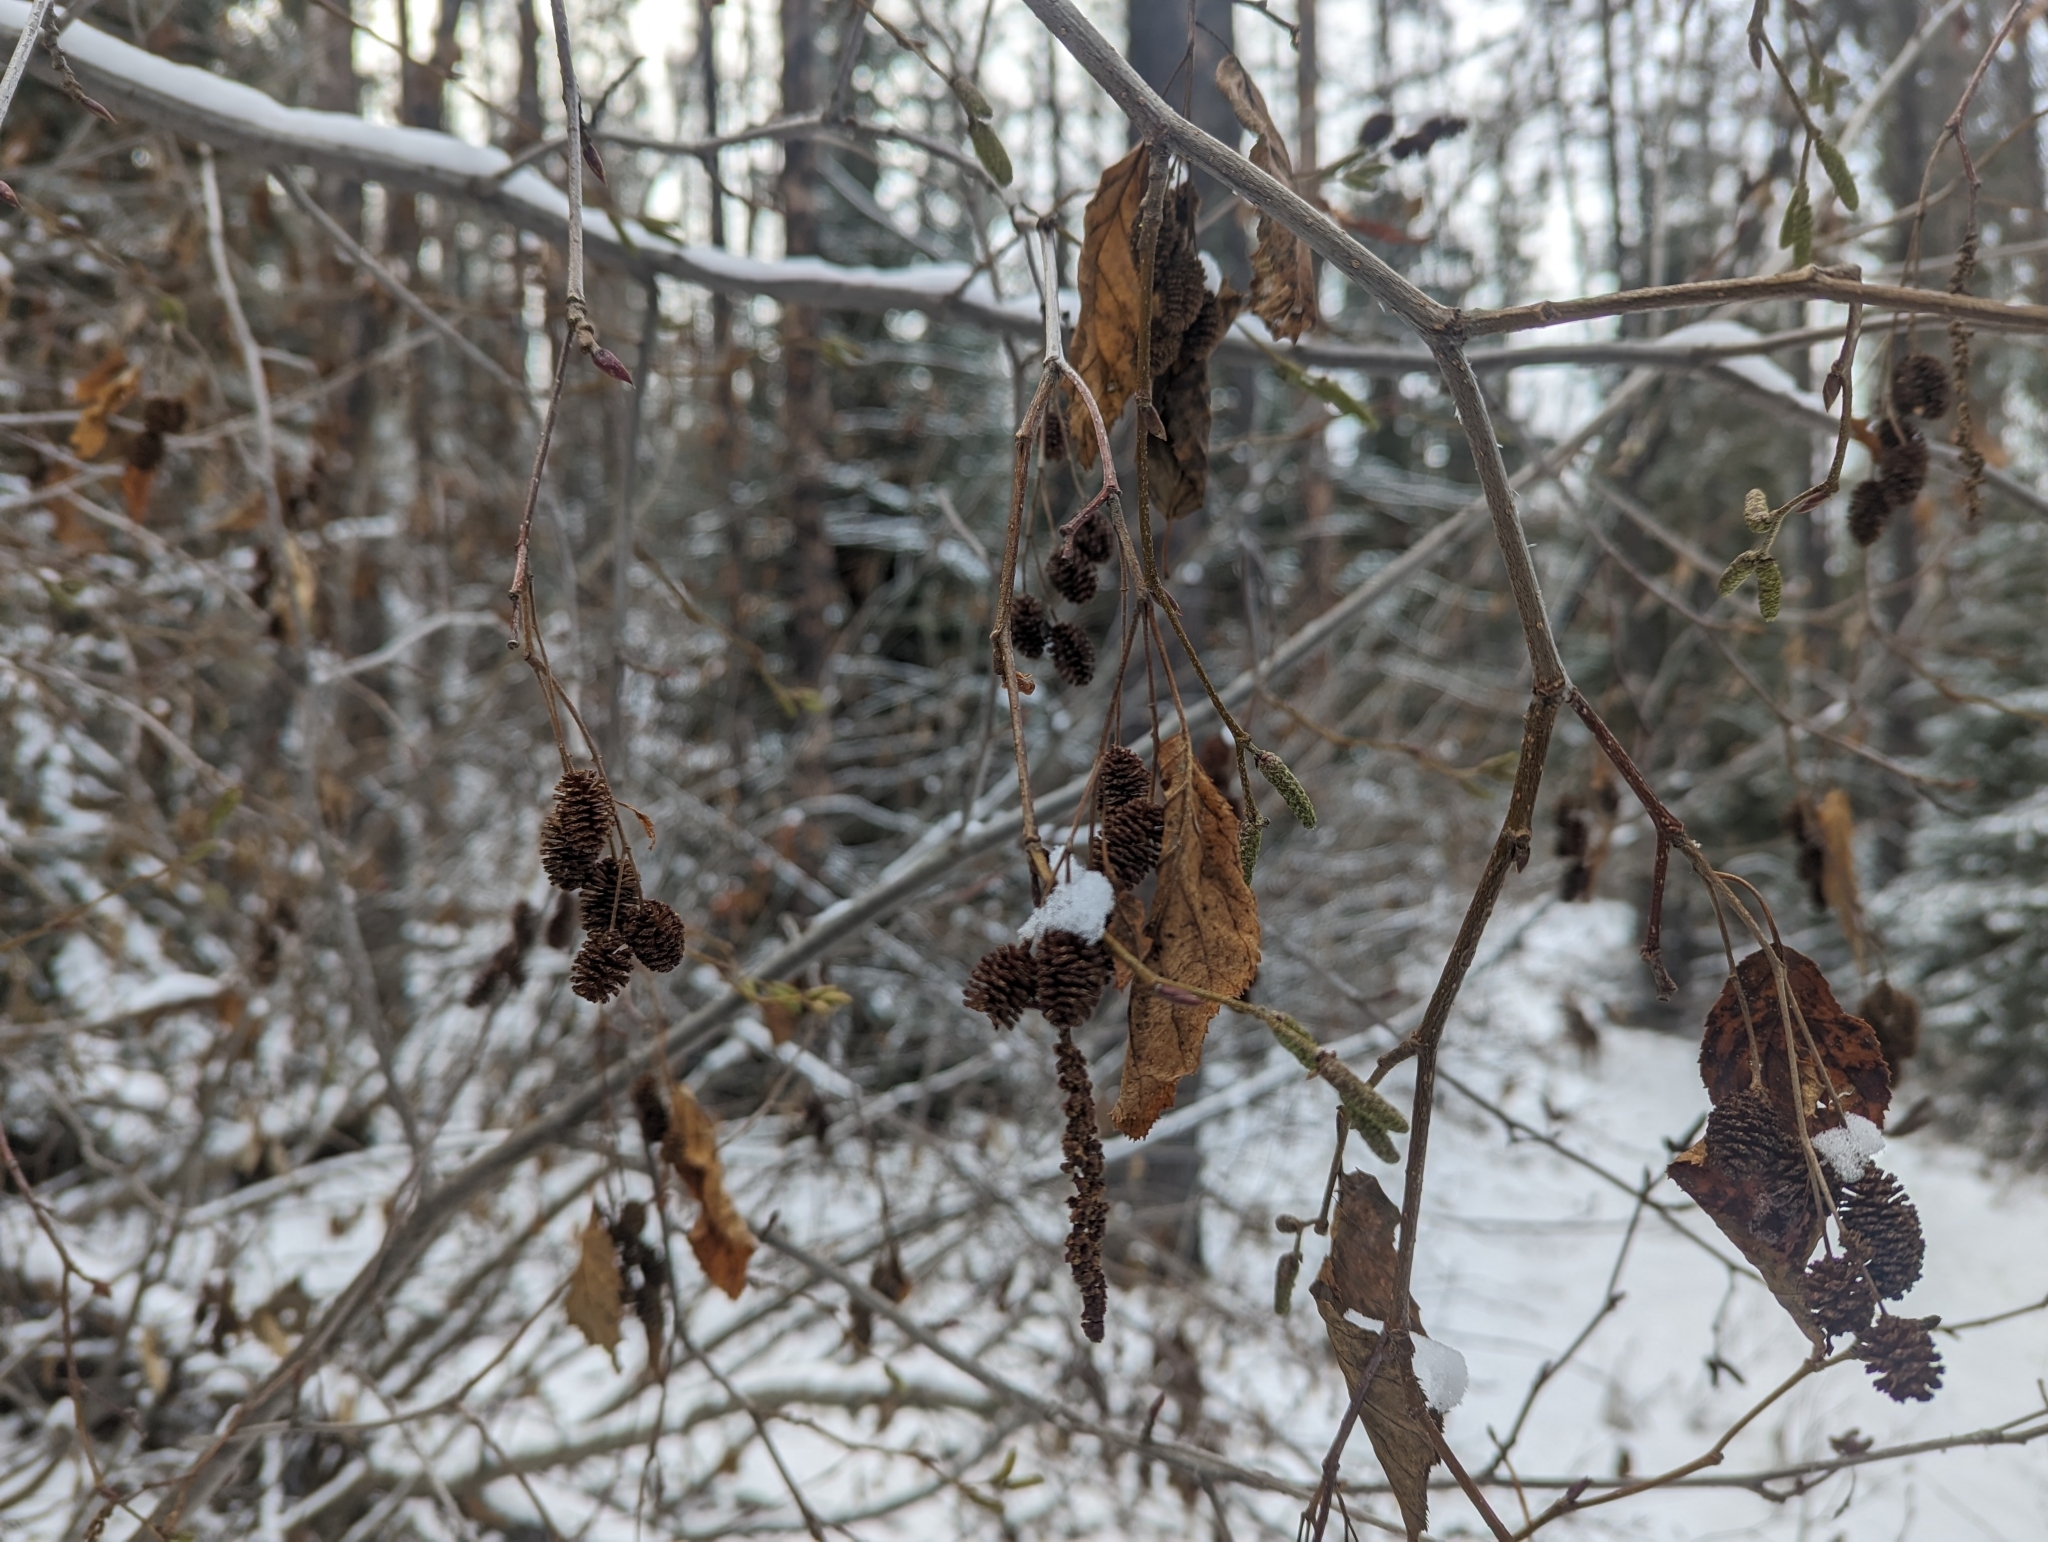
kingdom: Plantae
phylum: Tracheophyta
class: Magnoliopsida
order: Fagales
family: Betulaceae
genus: Alnus
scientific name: Alnus alnobetula
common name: Green alder
